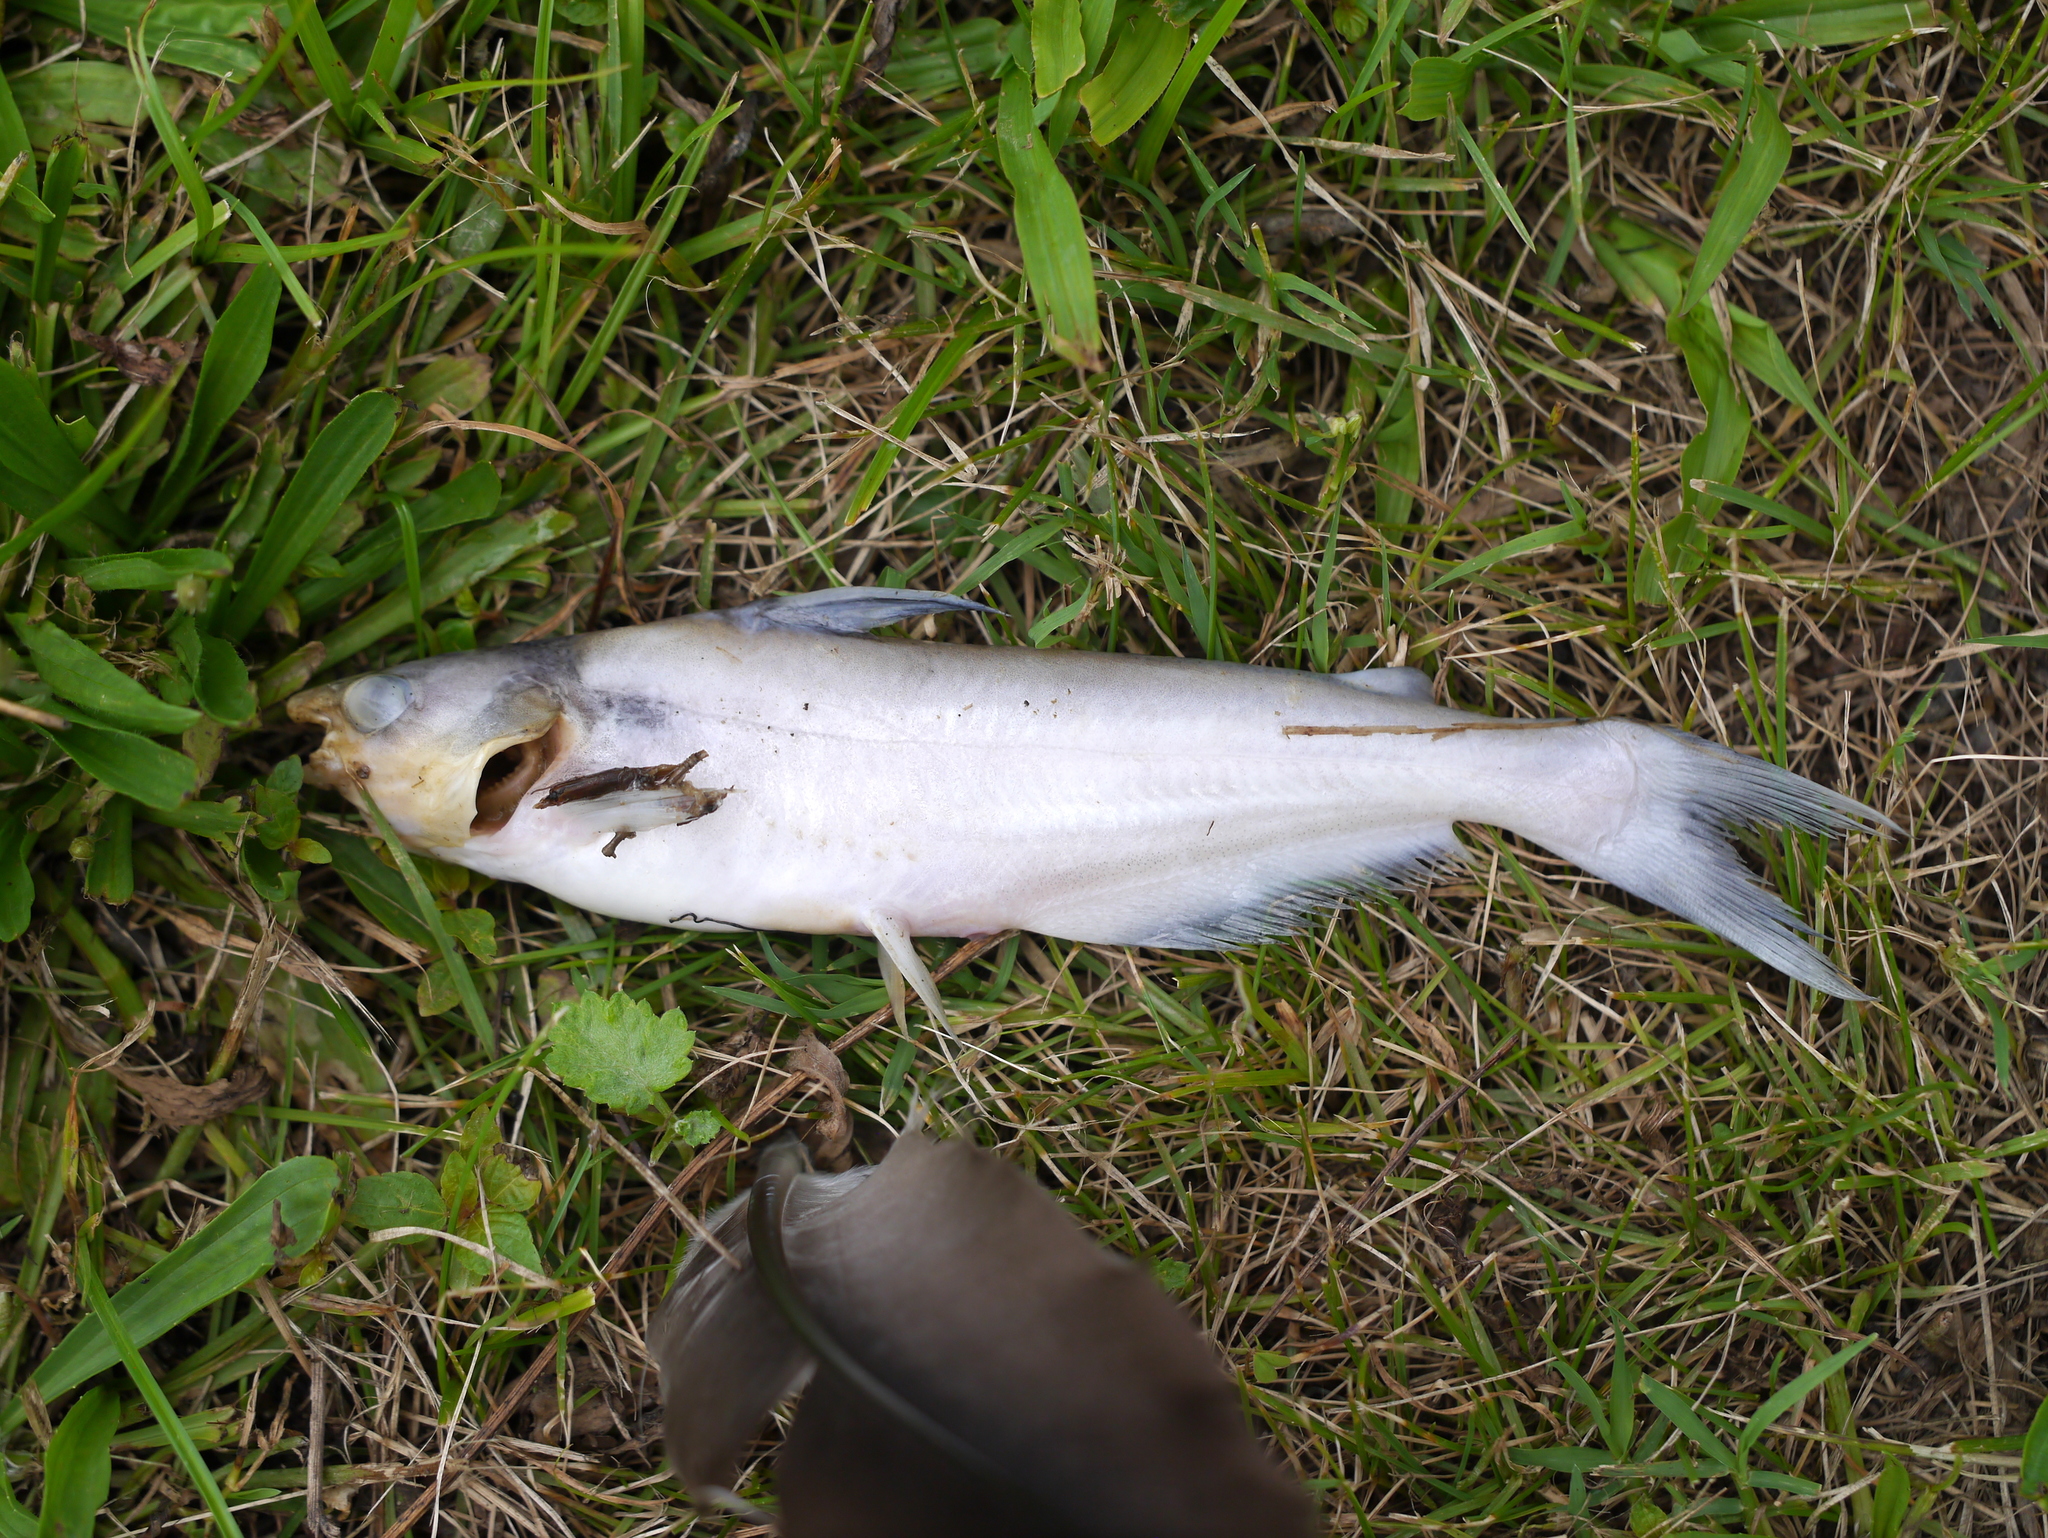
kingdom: Animalia
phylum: Chordata
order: Siluriformes
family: Ictaluridae
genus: Ictalurus
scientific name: Ictalurus furcatus
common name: Blue catfish
